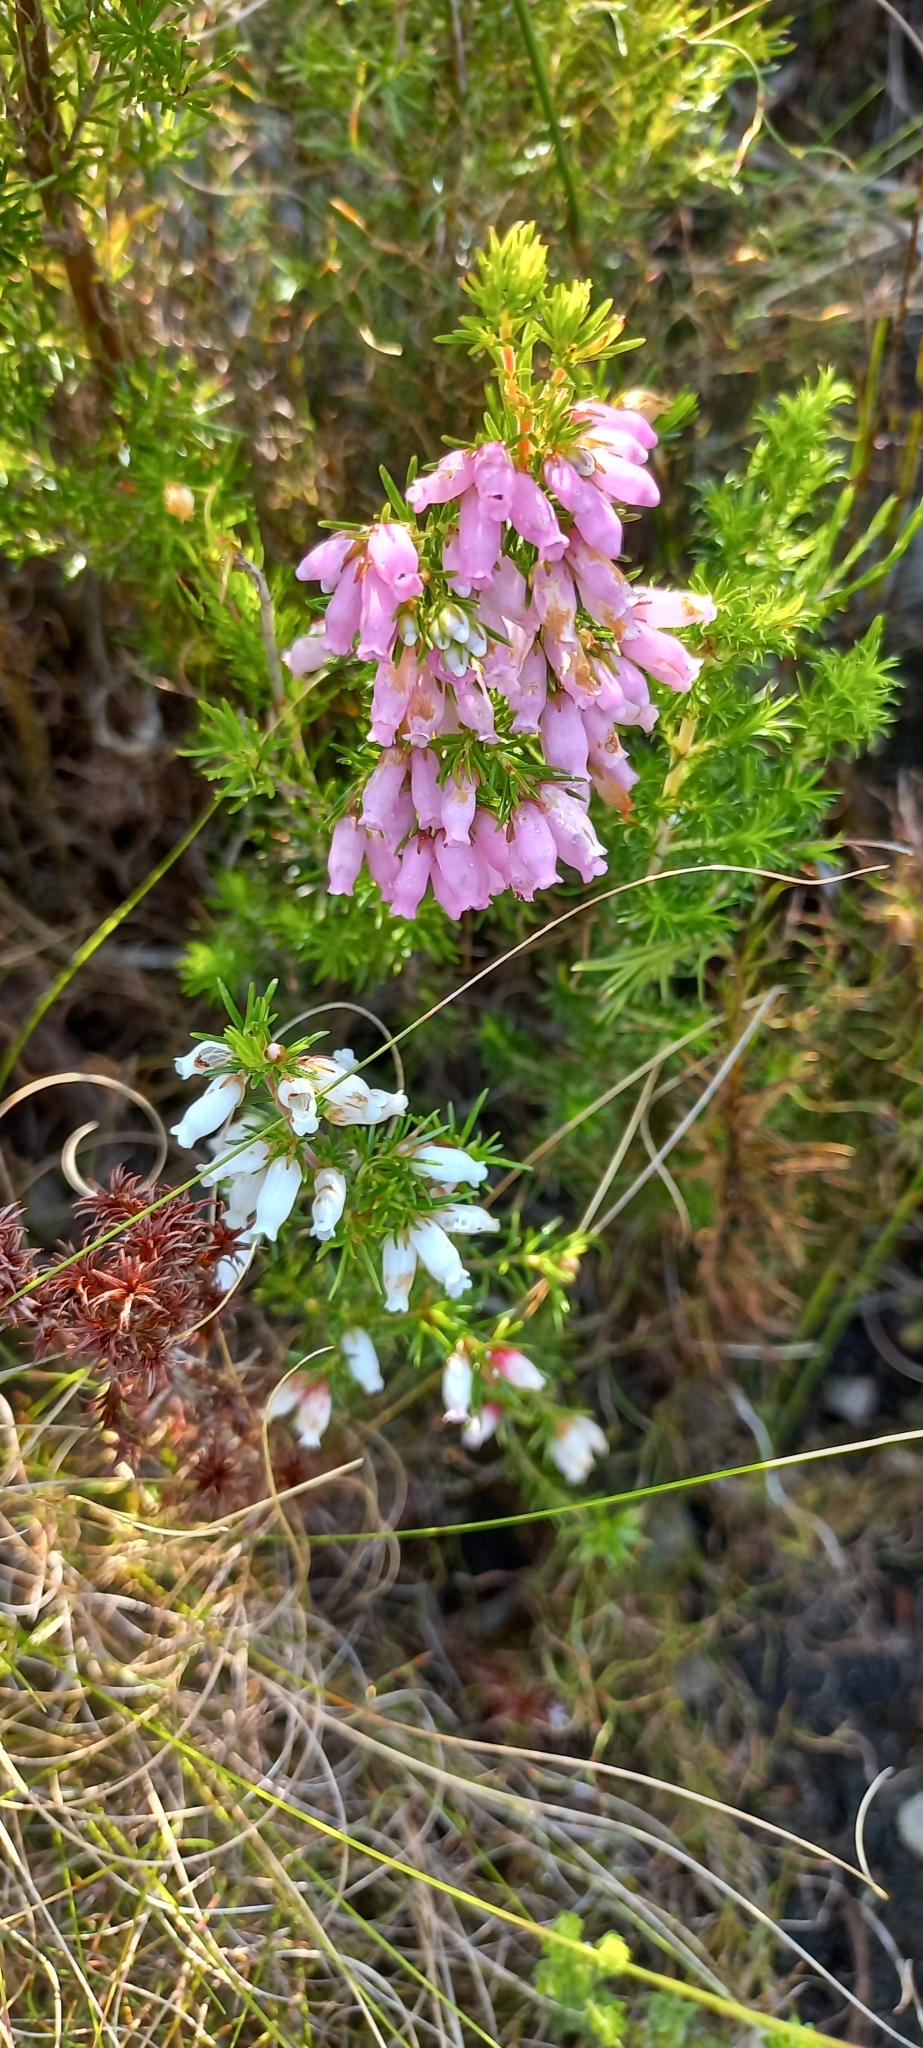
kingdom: Plantae
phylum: Tracheophyta
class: Magnoliopsida
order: Ericales
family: Ericaceae
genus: Erica
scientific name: Erica sitiens
